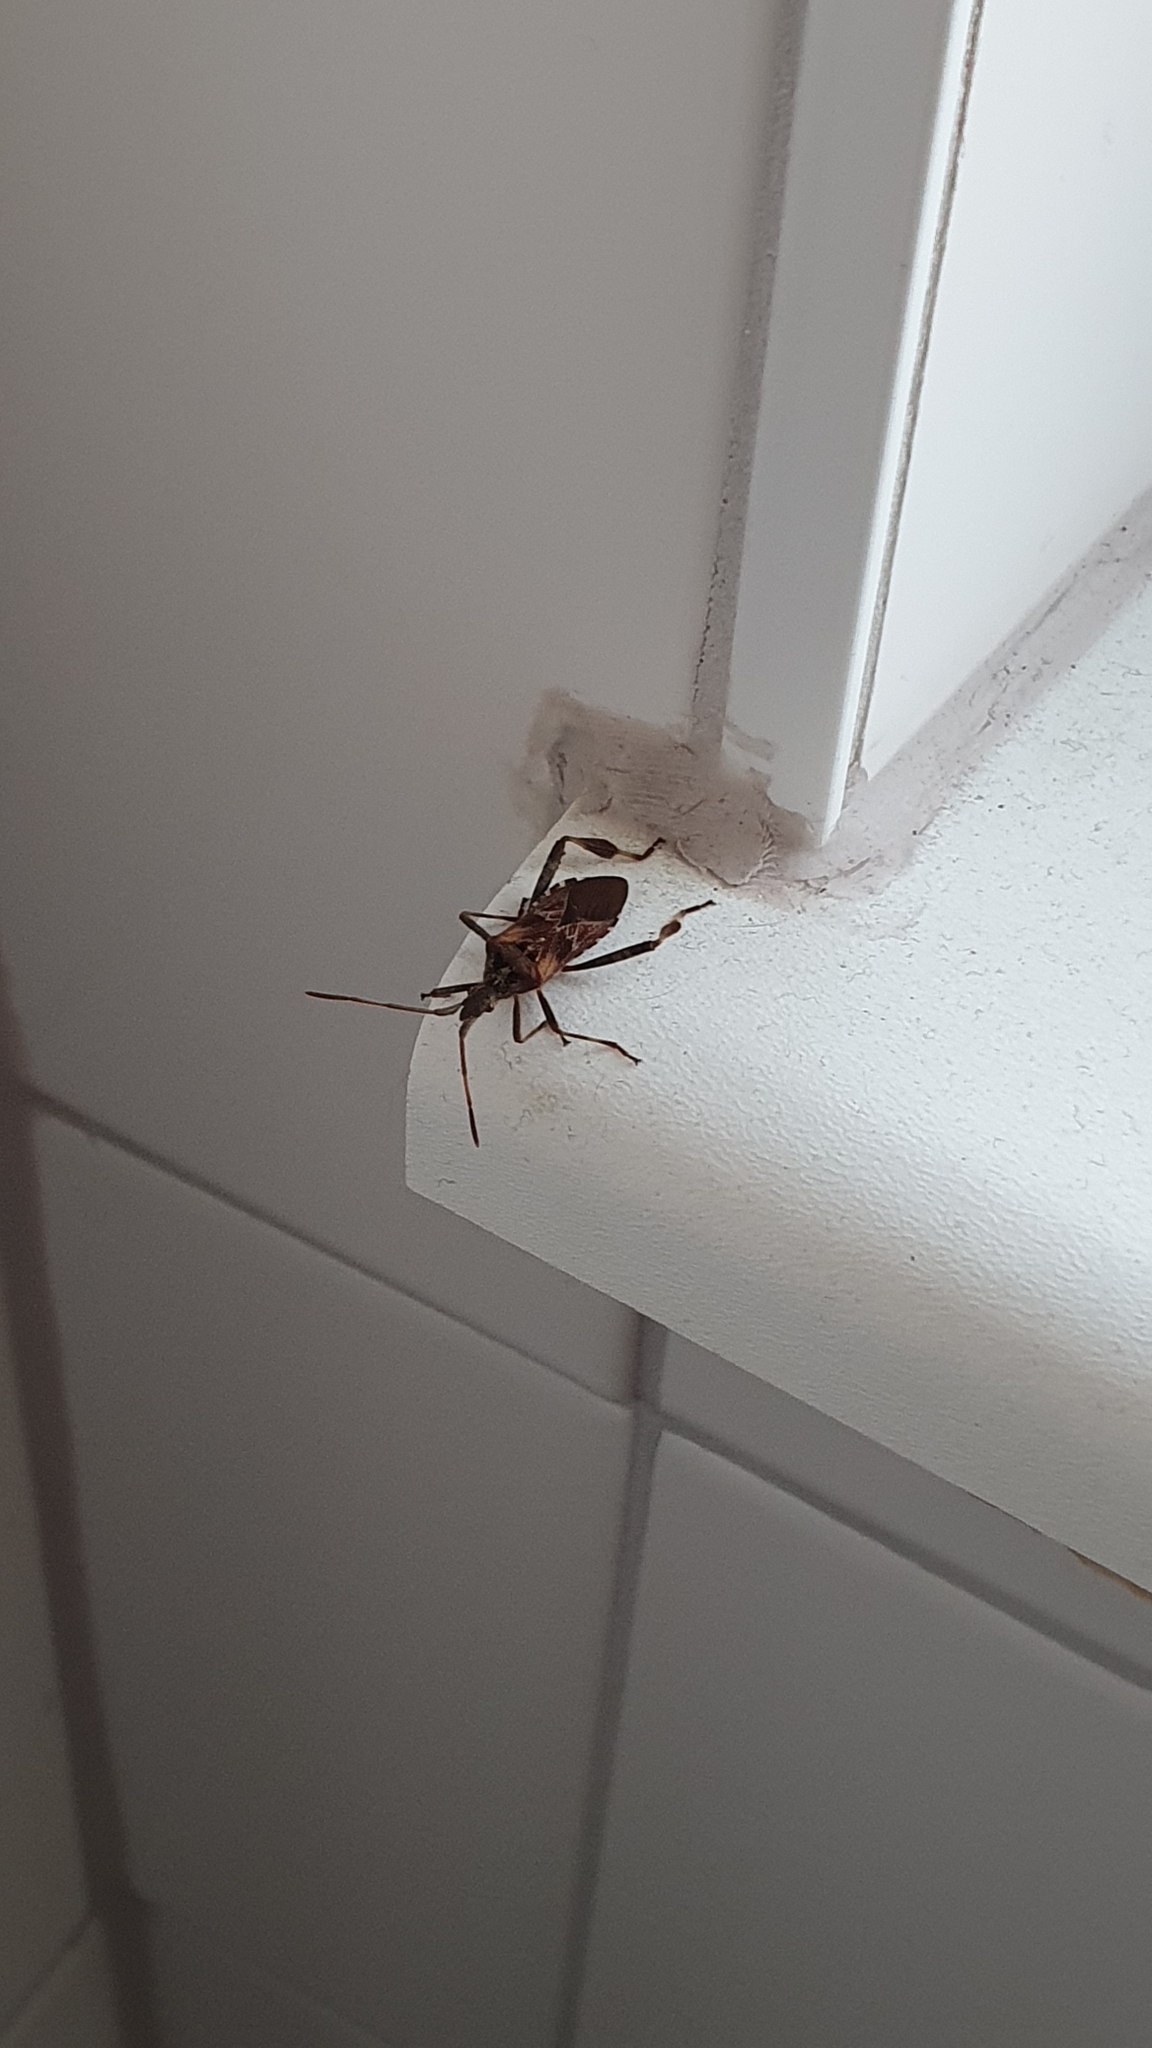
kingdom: Animalia
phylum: Arthropoda
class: Insecta
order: Hemiptera
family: Coreidae
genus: Leptoglossus
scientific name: Leptoglossus occidentalis
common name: Western conifer-seed bug
